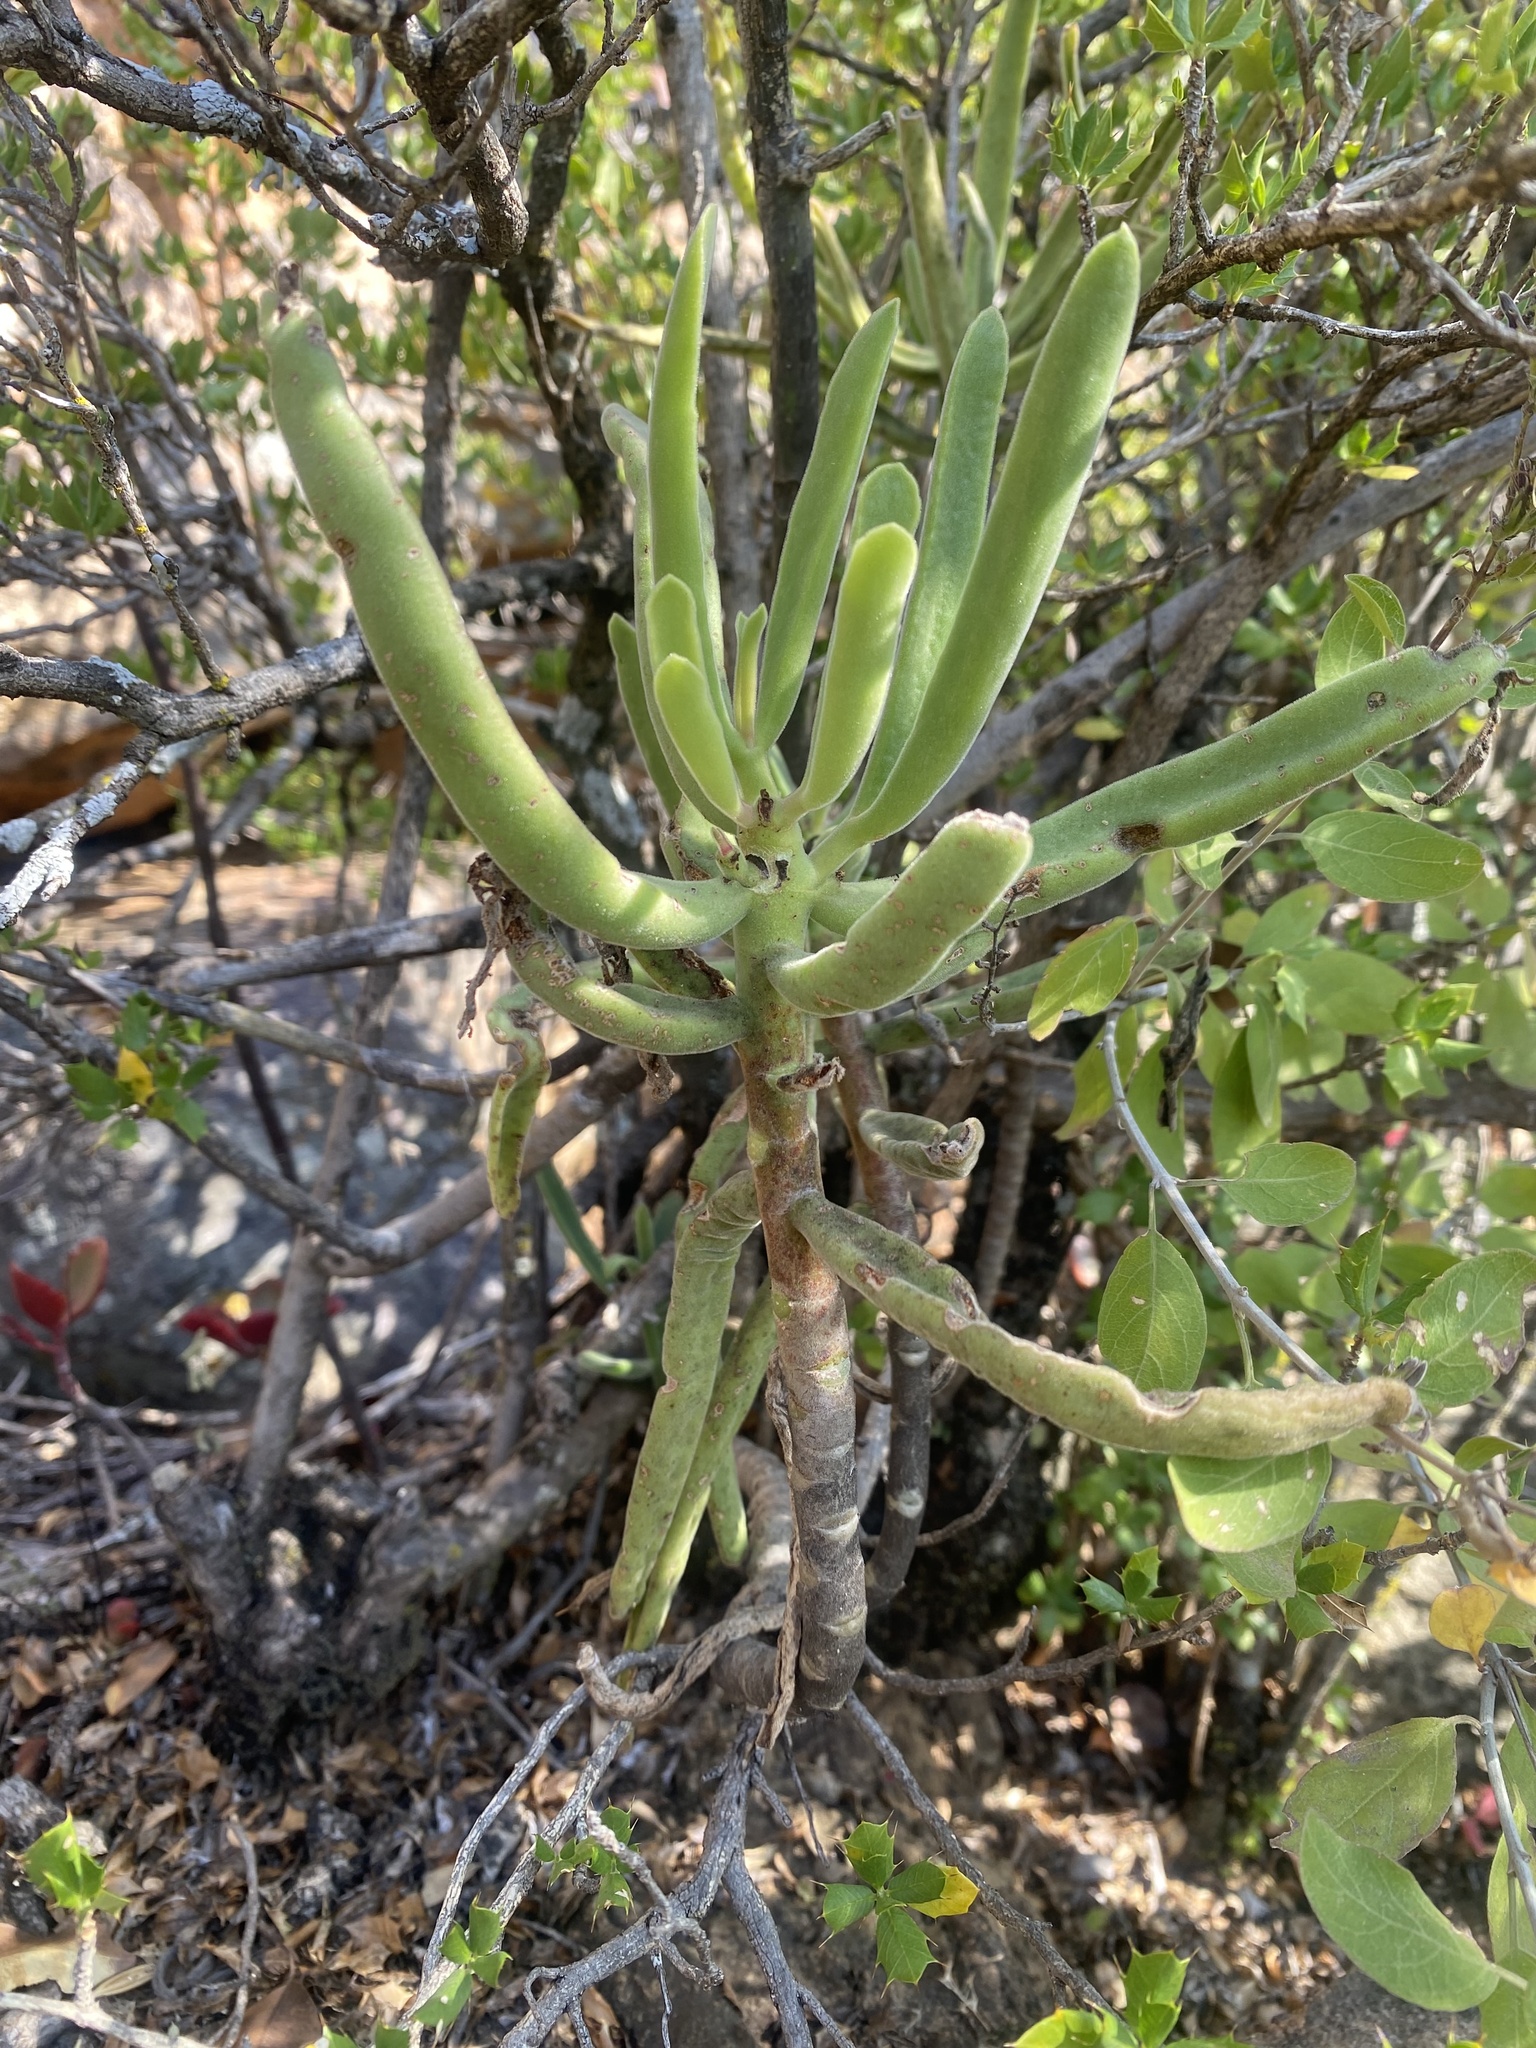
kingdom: Plantae
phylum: Tracheophyta
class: Magnoliopsida
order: Saxifragales
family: Crassulaceae
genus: Cotyledon
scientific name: Cotyledon barbeyi
